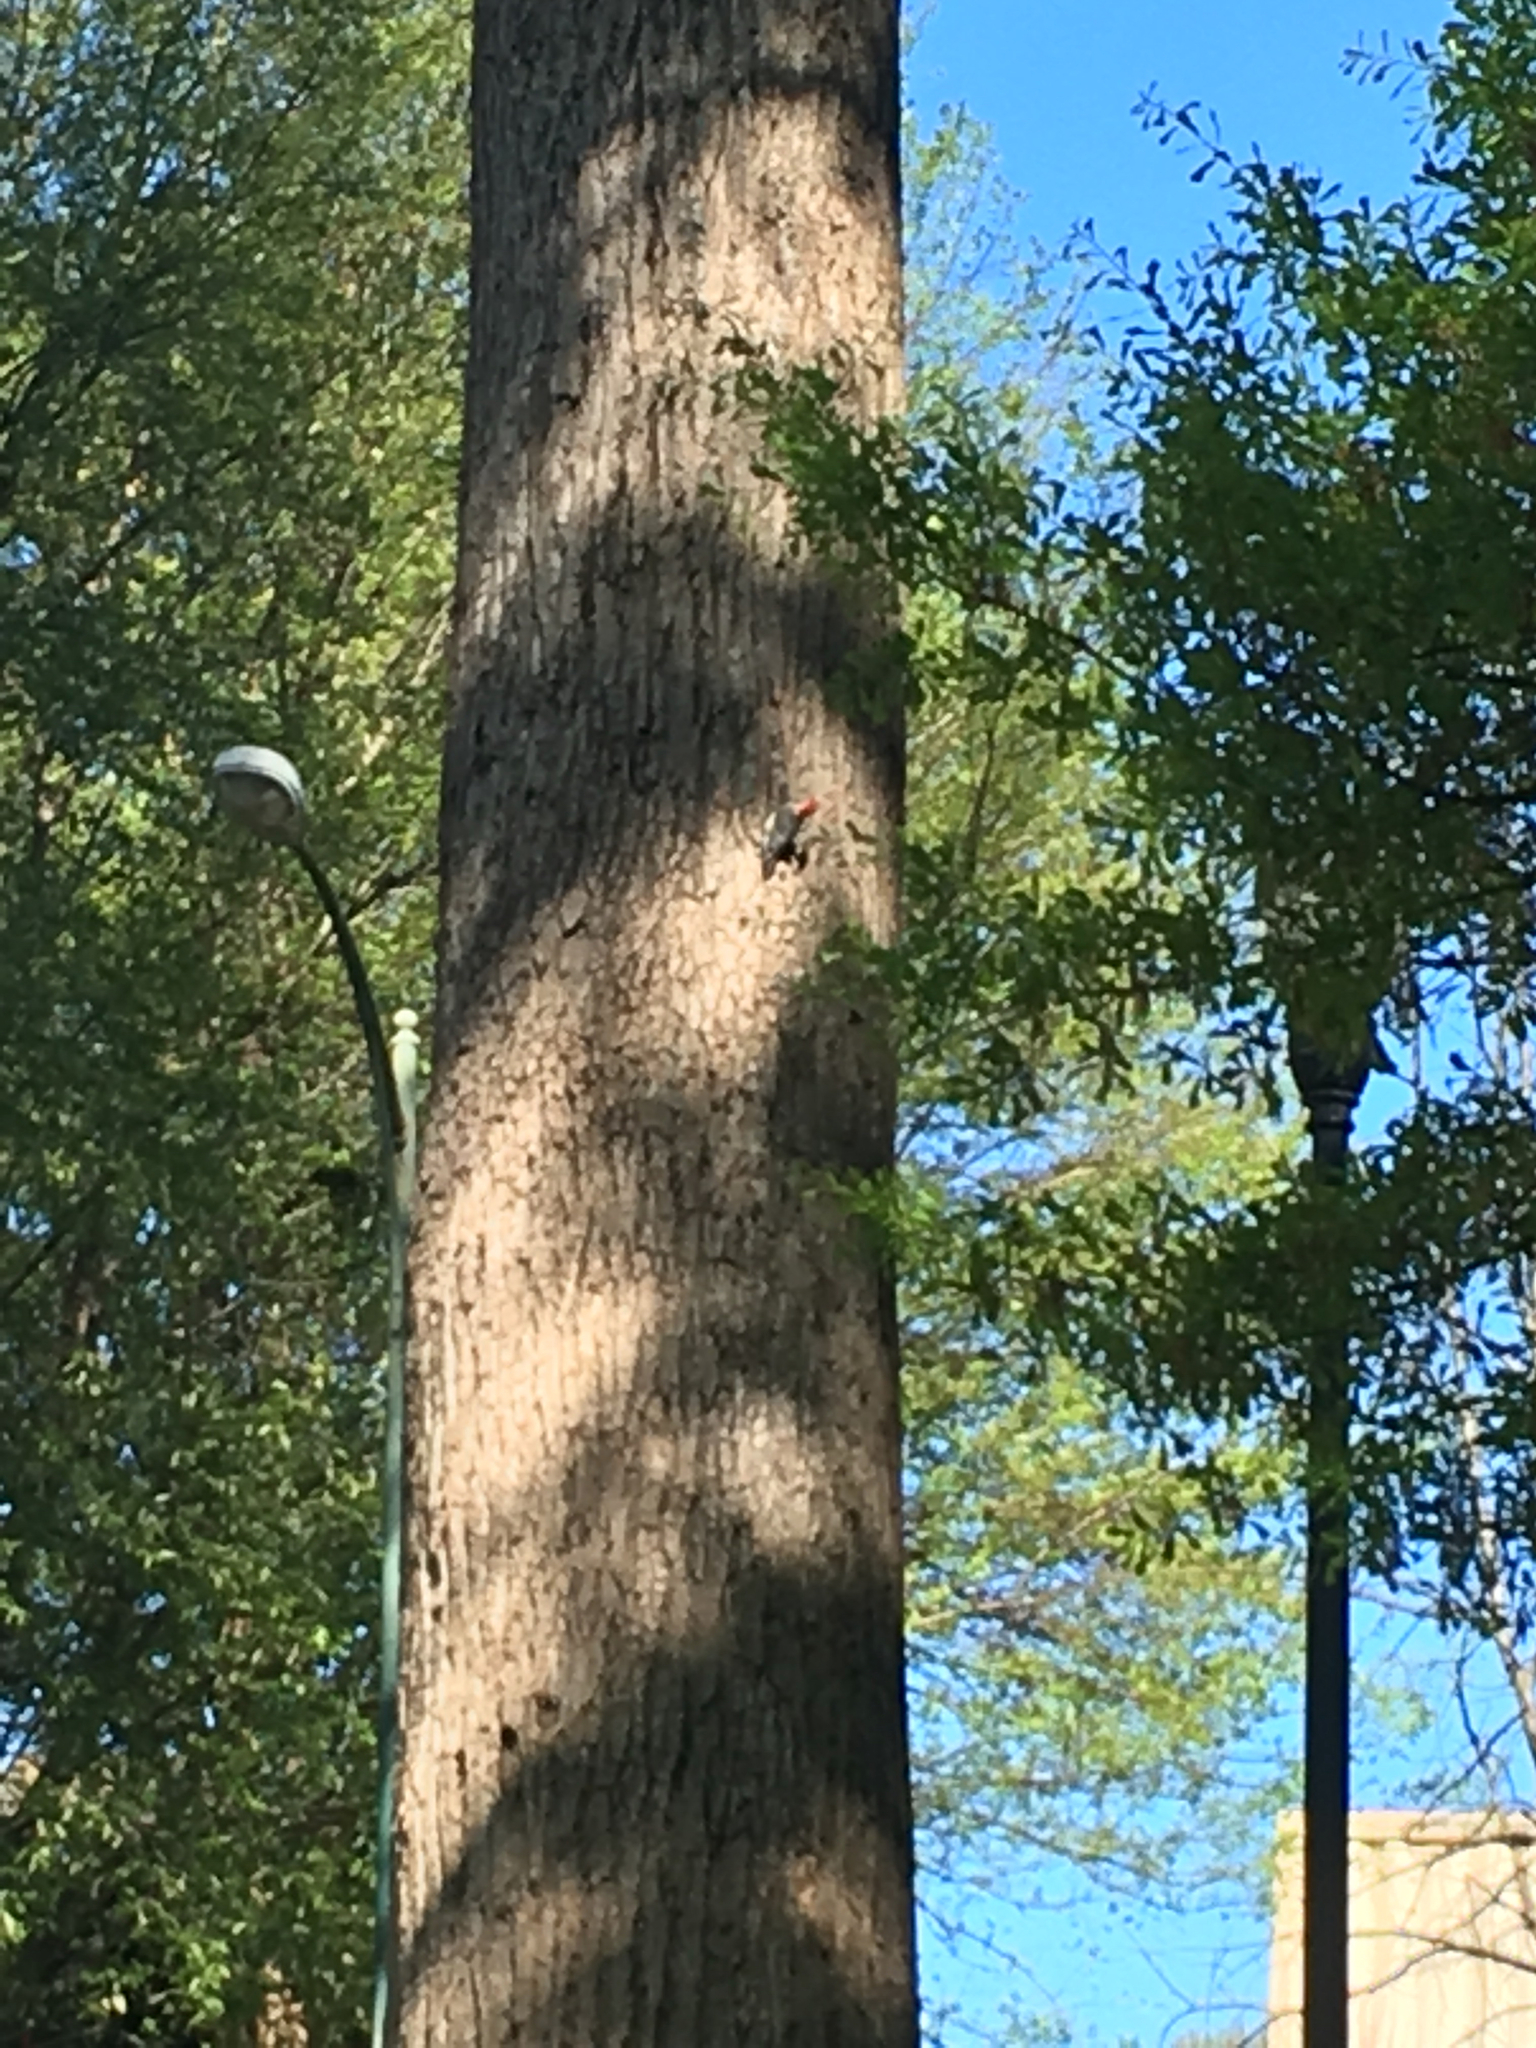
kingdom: Animalia
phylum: Chordata
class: Aves
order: Piciformes
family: Picidae
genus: Melanerpes
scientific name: Melanerpes carolinus
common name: Red-bellied woodpecker
